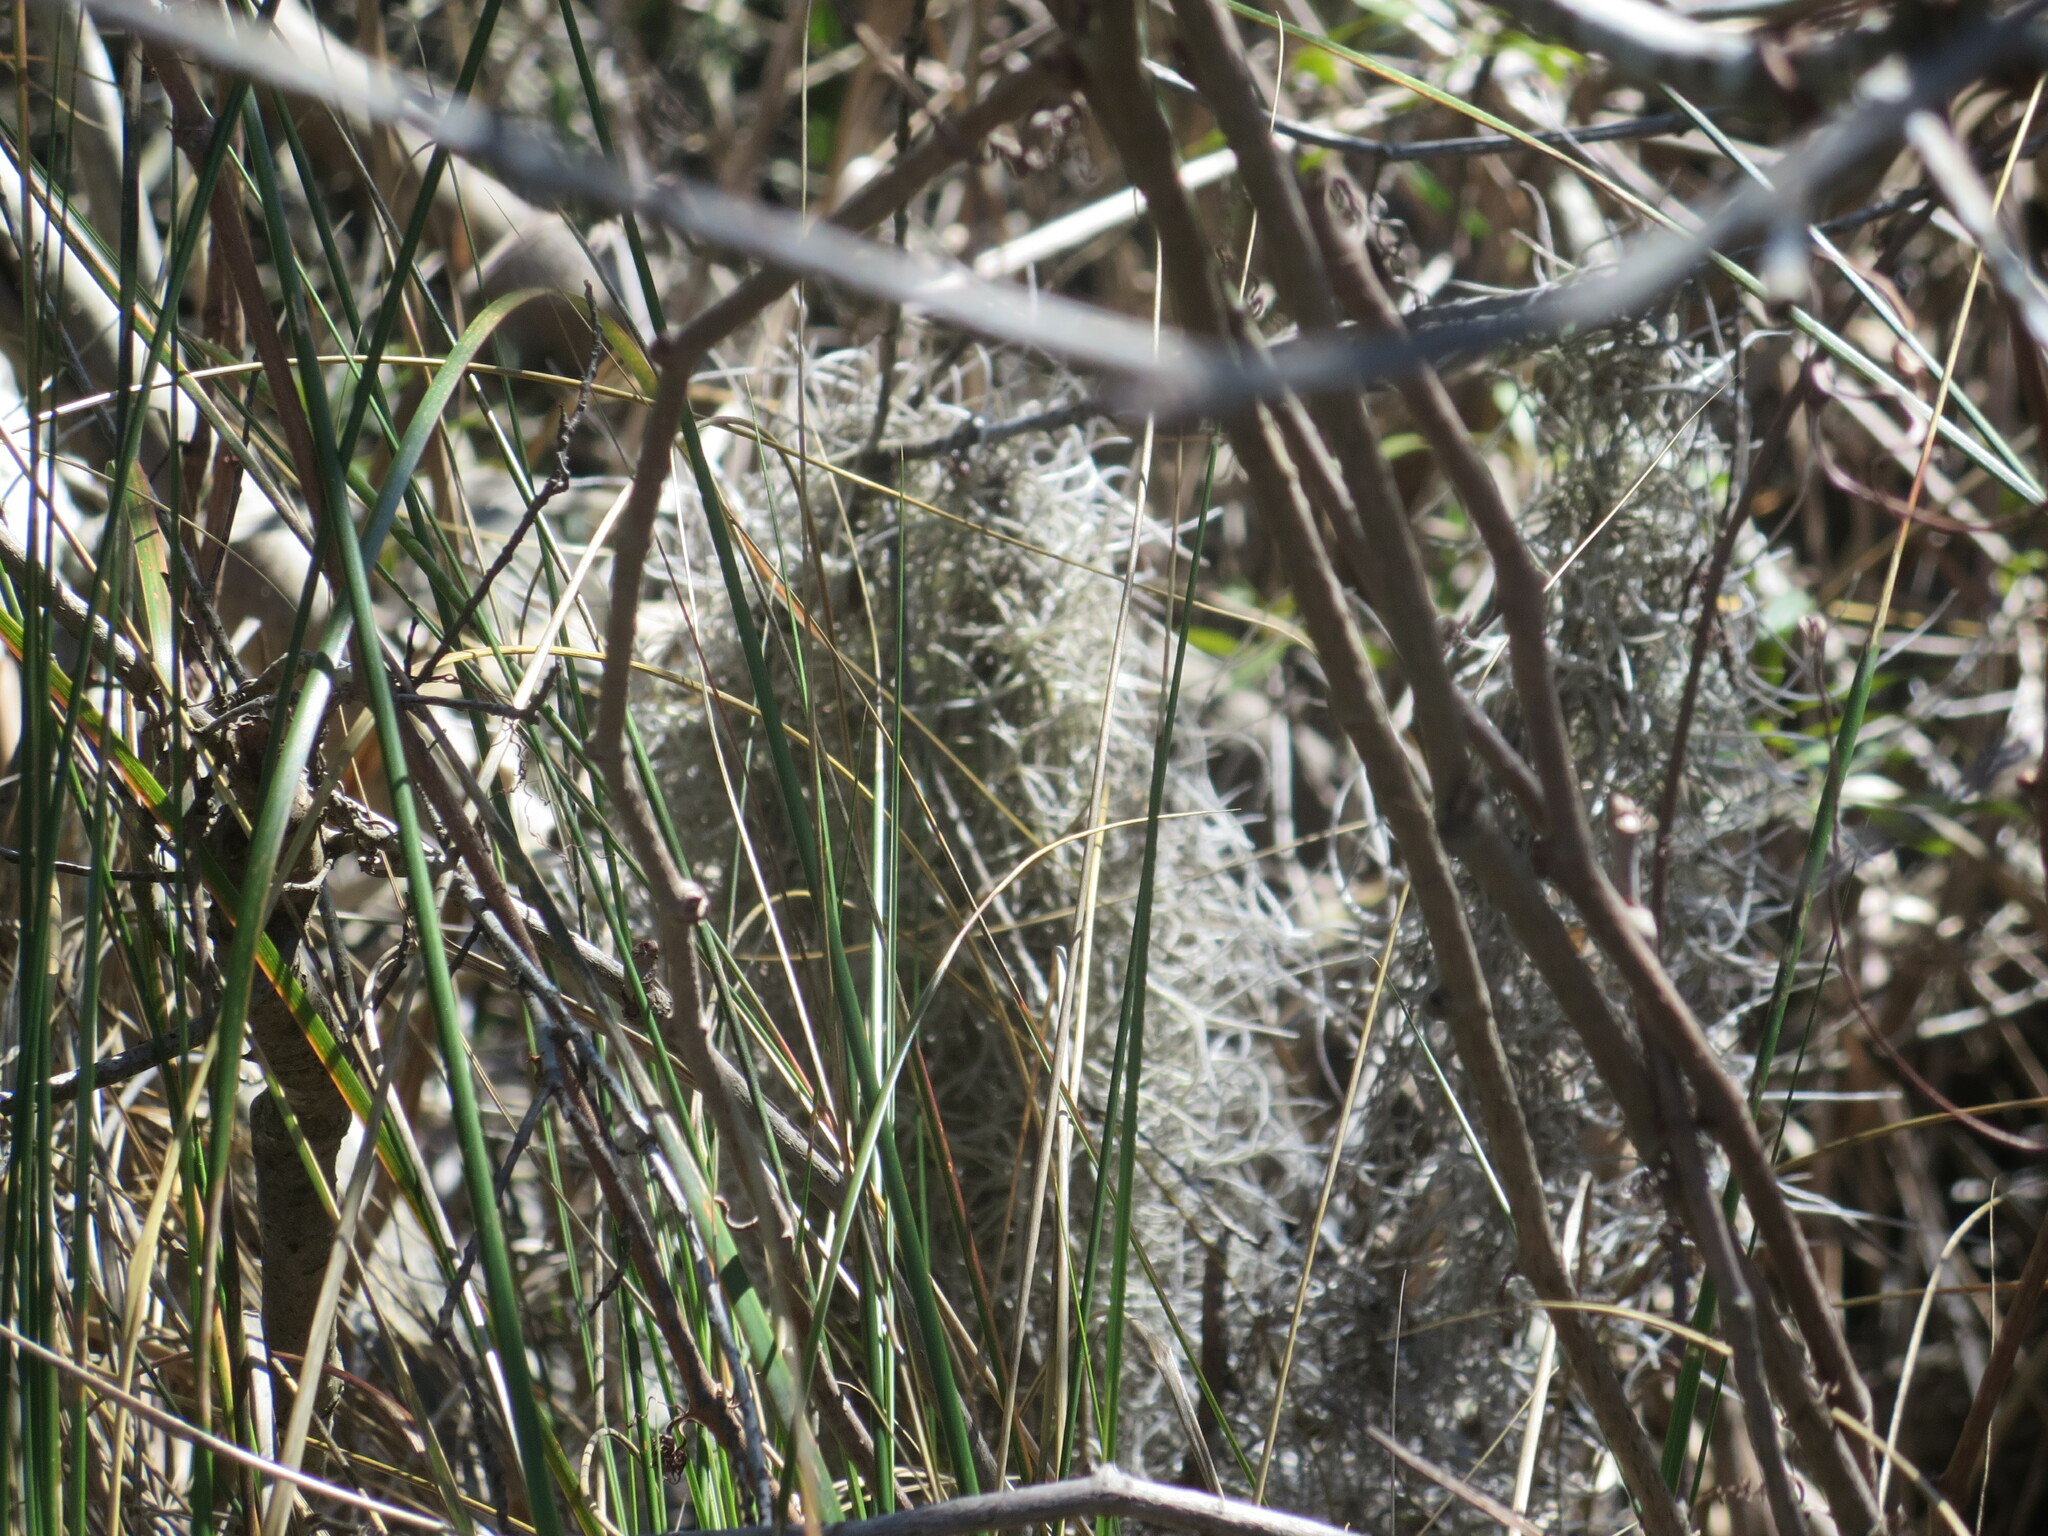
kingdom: Plantae
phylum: Tracheophyta
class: Liliopsida
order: Poales
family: Bromeliaceae
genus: Tillandsia
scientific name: Tillandsia usneoides
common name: Spanish moss
